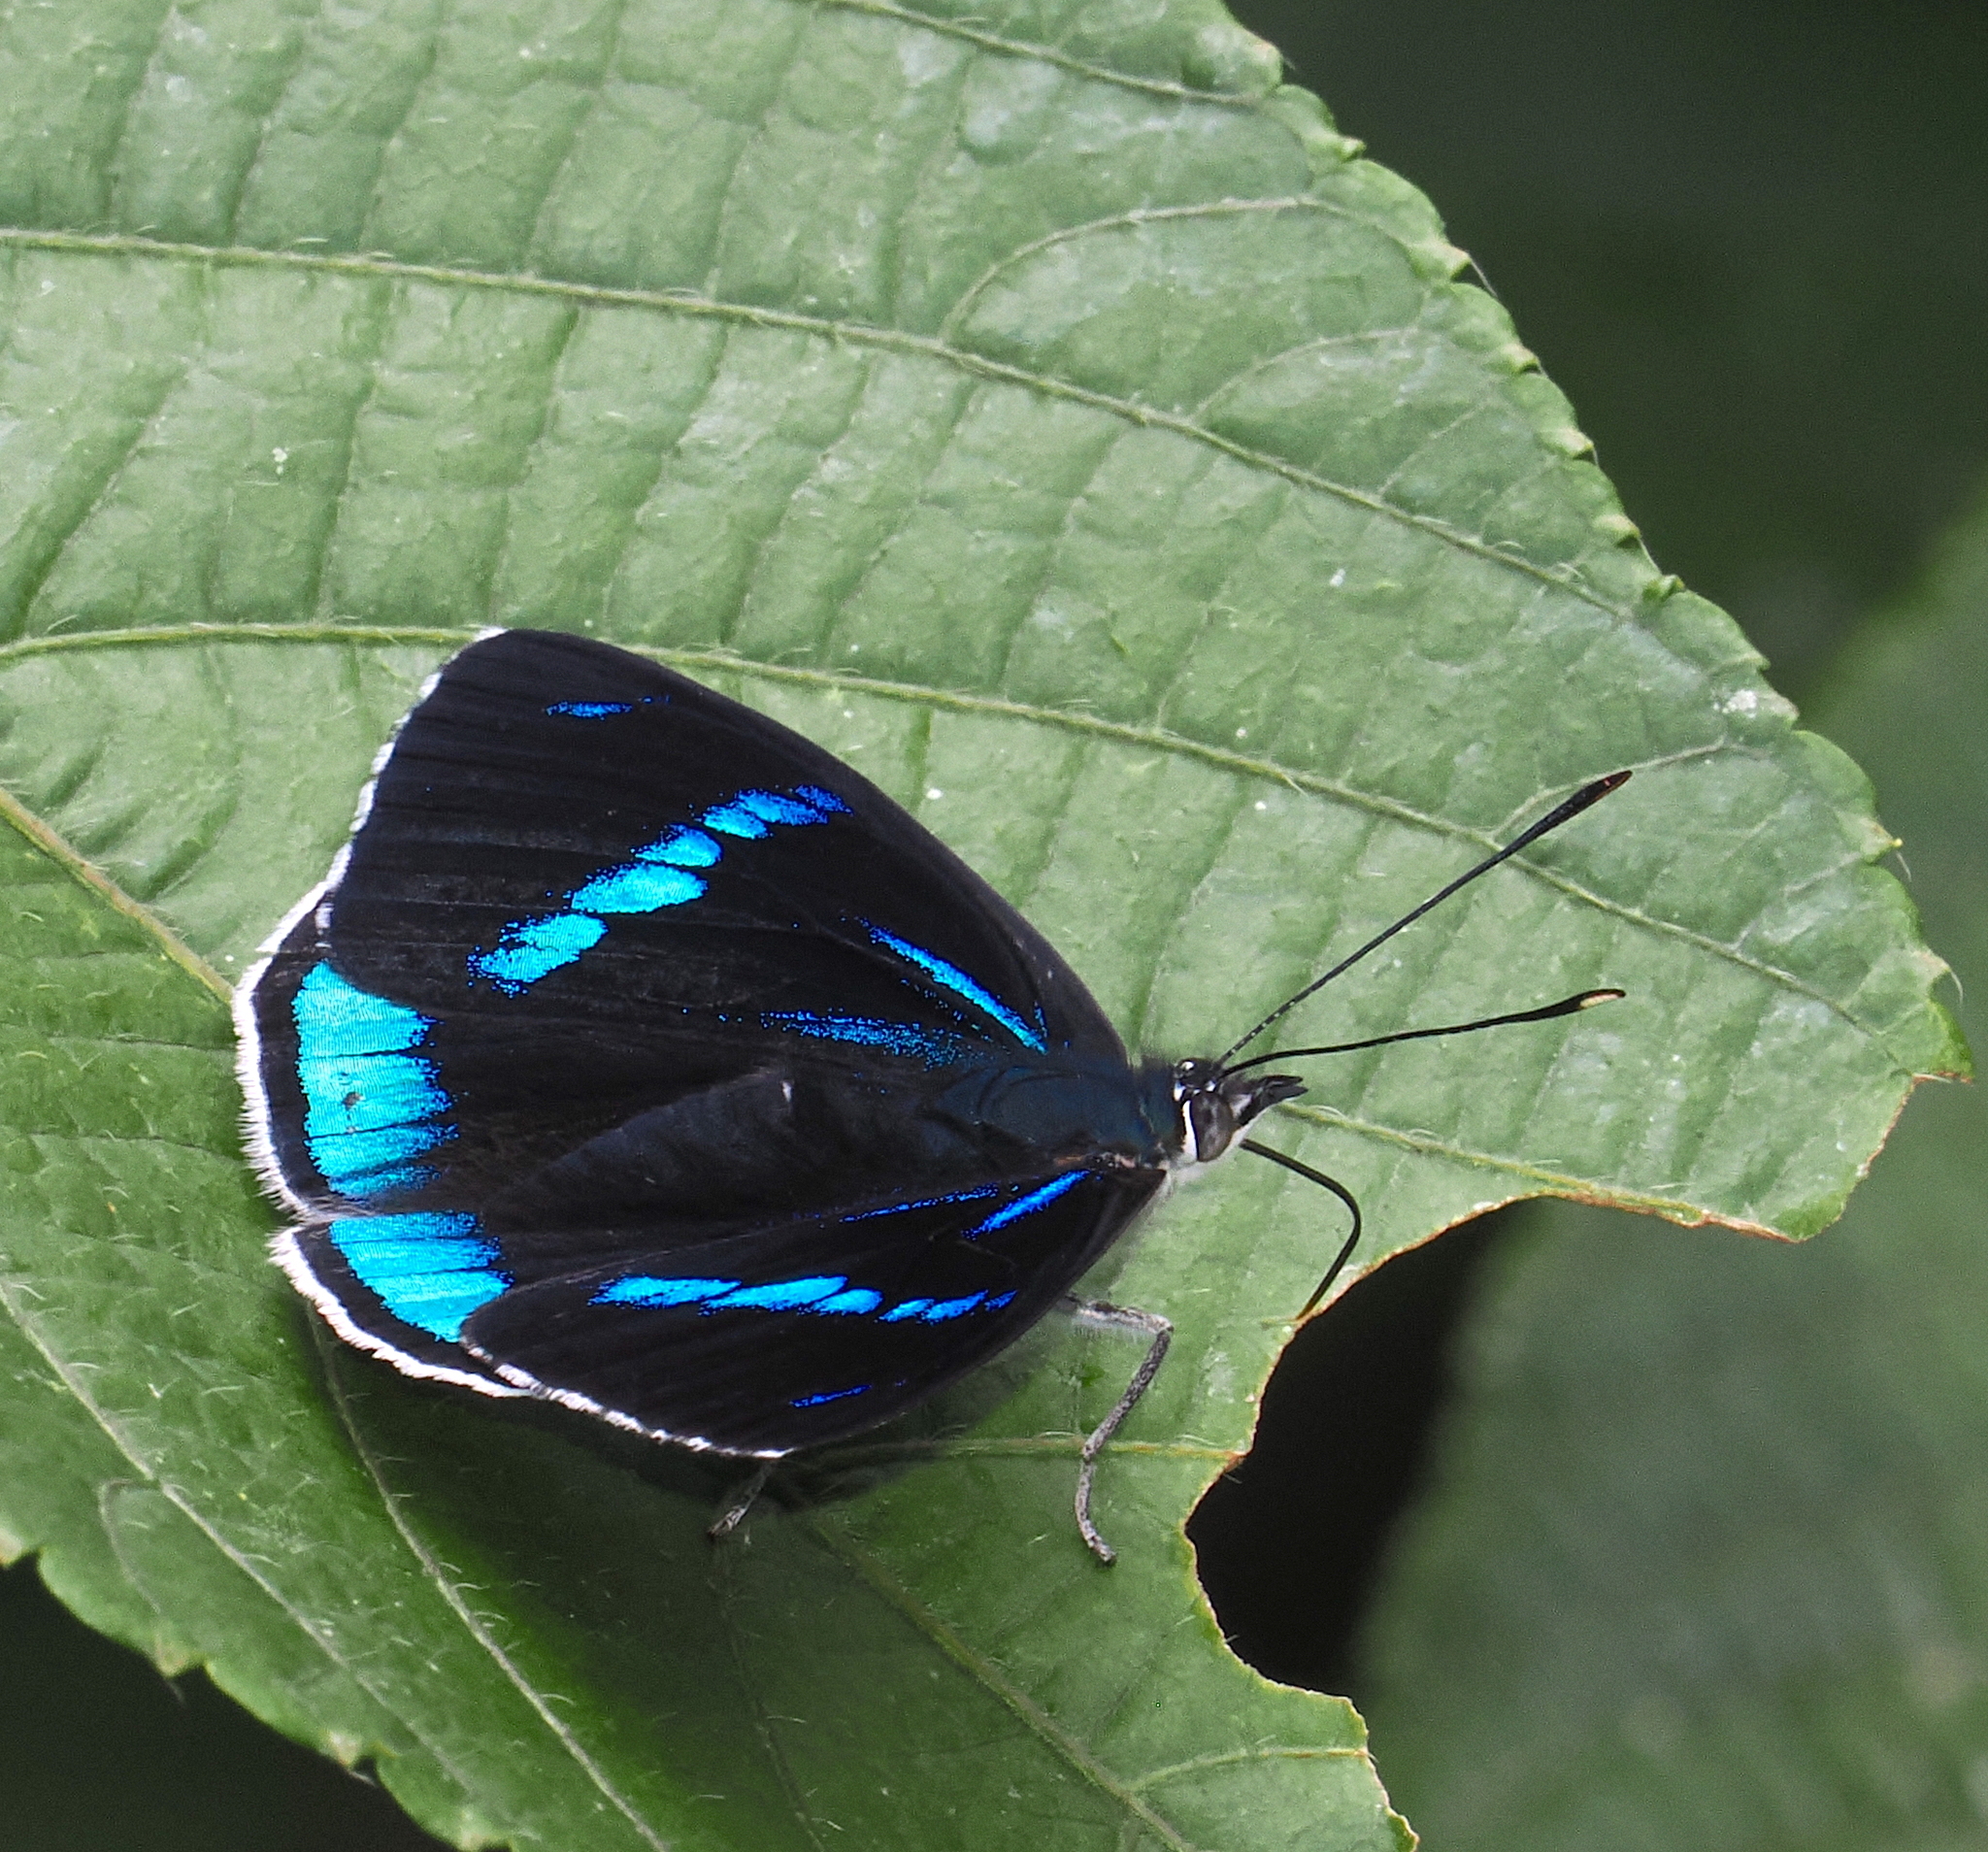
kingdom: Animalia
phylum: Arthropoda
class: Insecta
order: Lepidoptera
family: Nymphalidae
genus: Perisama
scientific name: Perisama alicia
